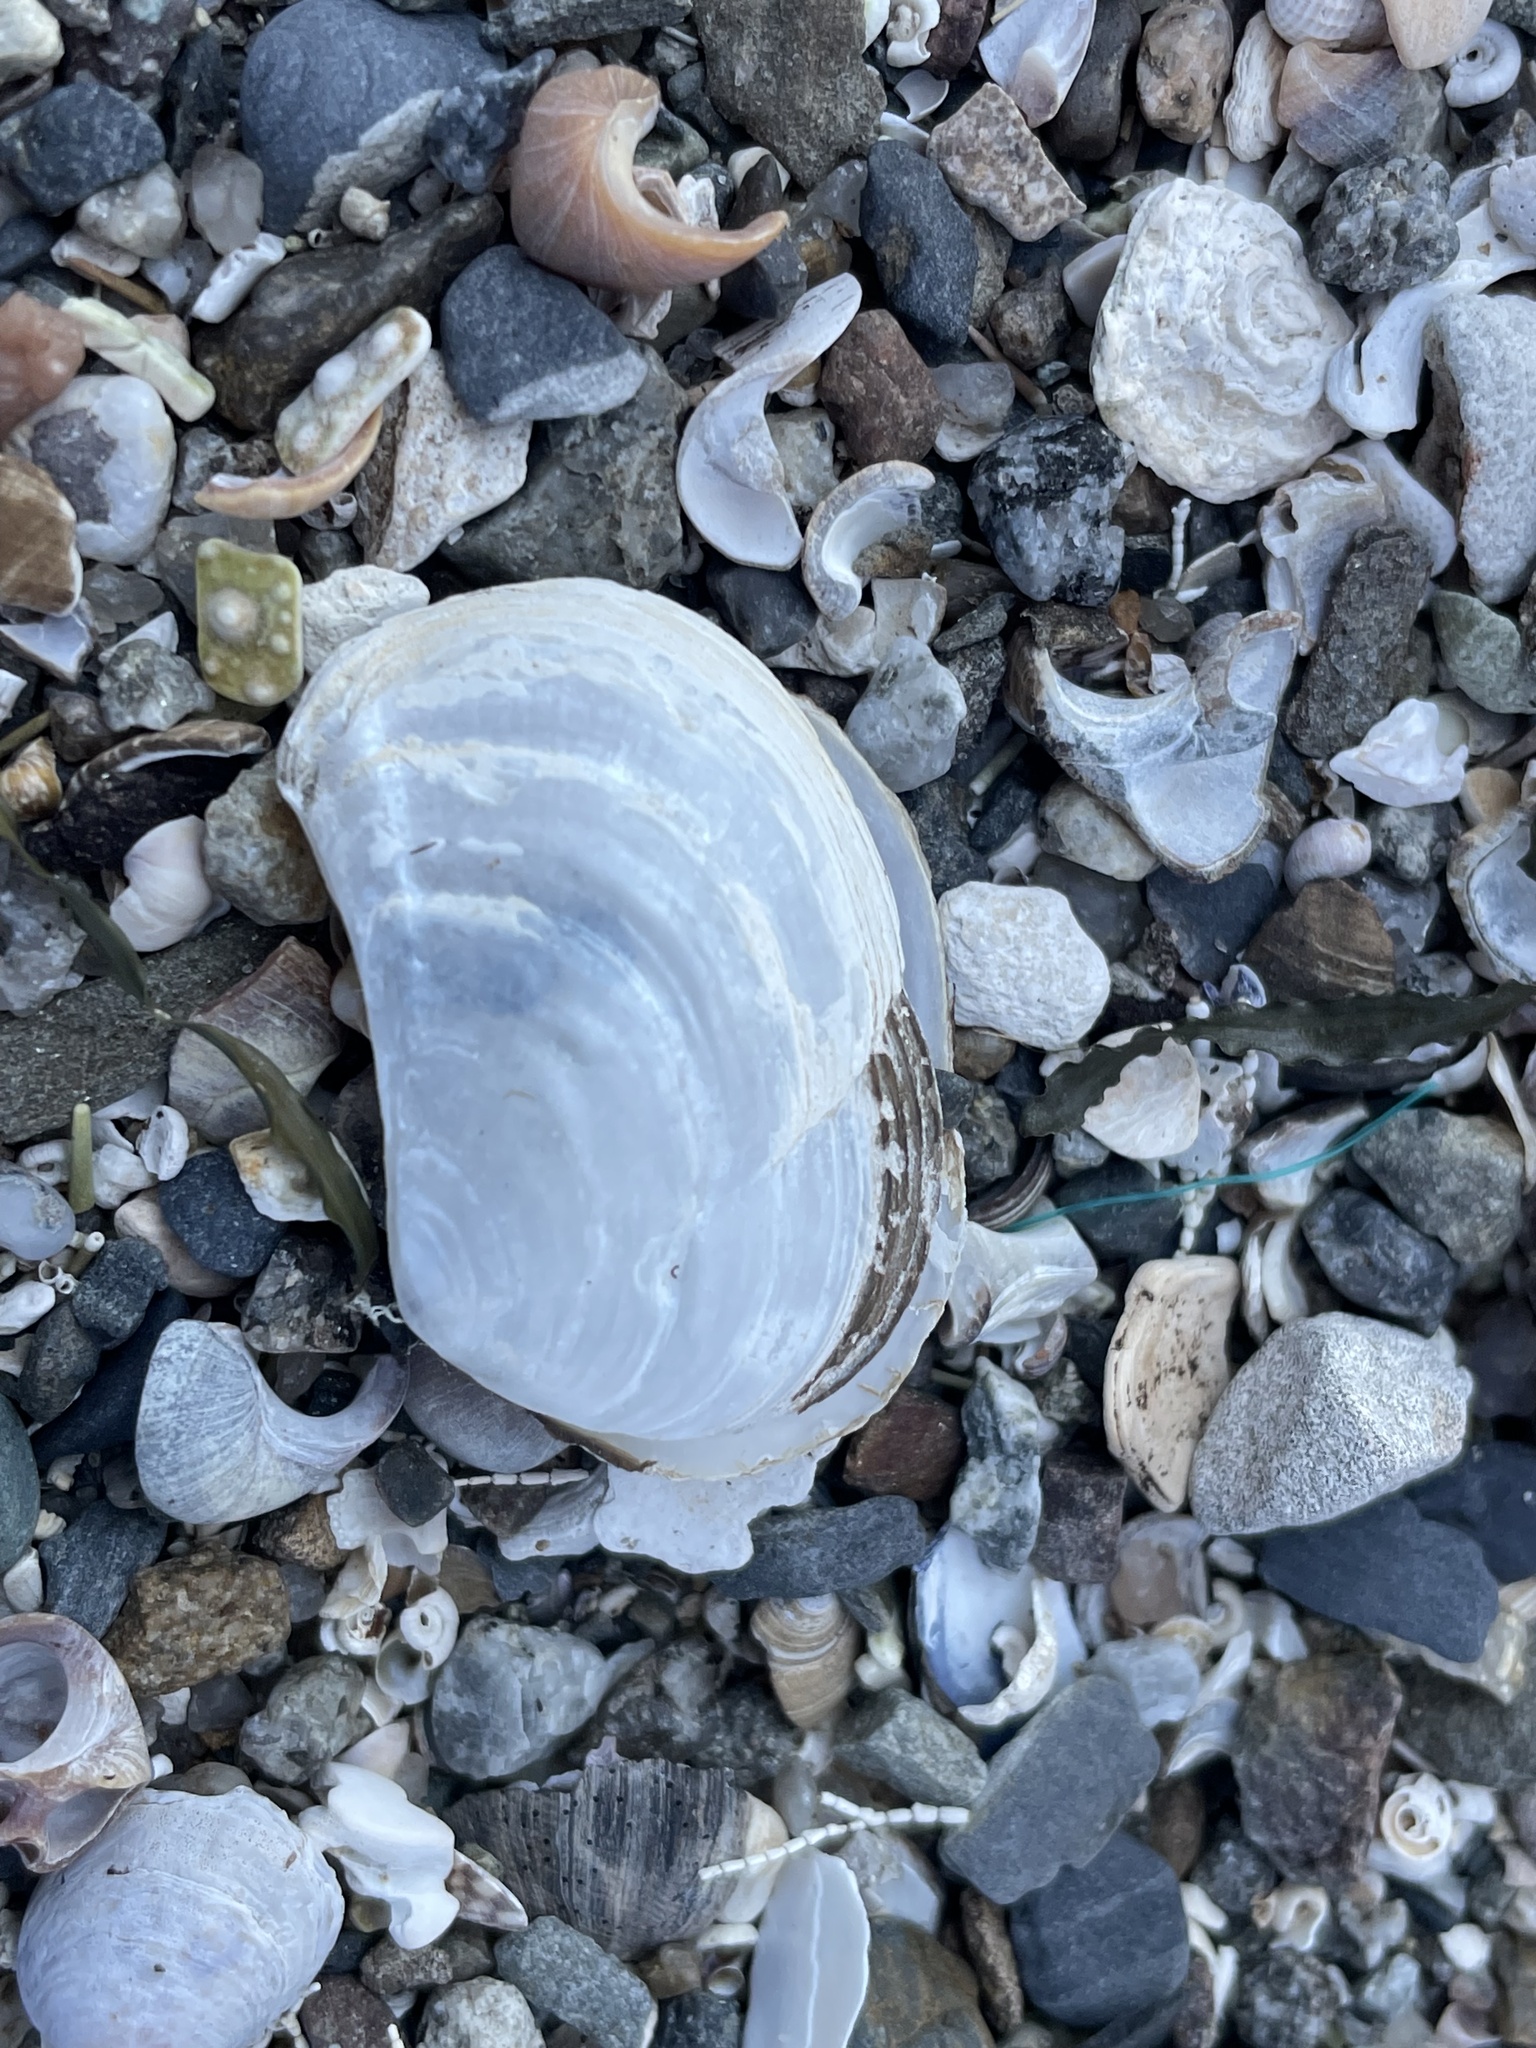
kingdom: Animalia
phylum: Mollusca
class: Bivalvia
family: Pandoridae
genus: Pandora
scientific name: Pandora gouldiana
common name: Rounded pandora
